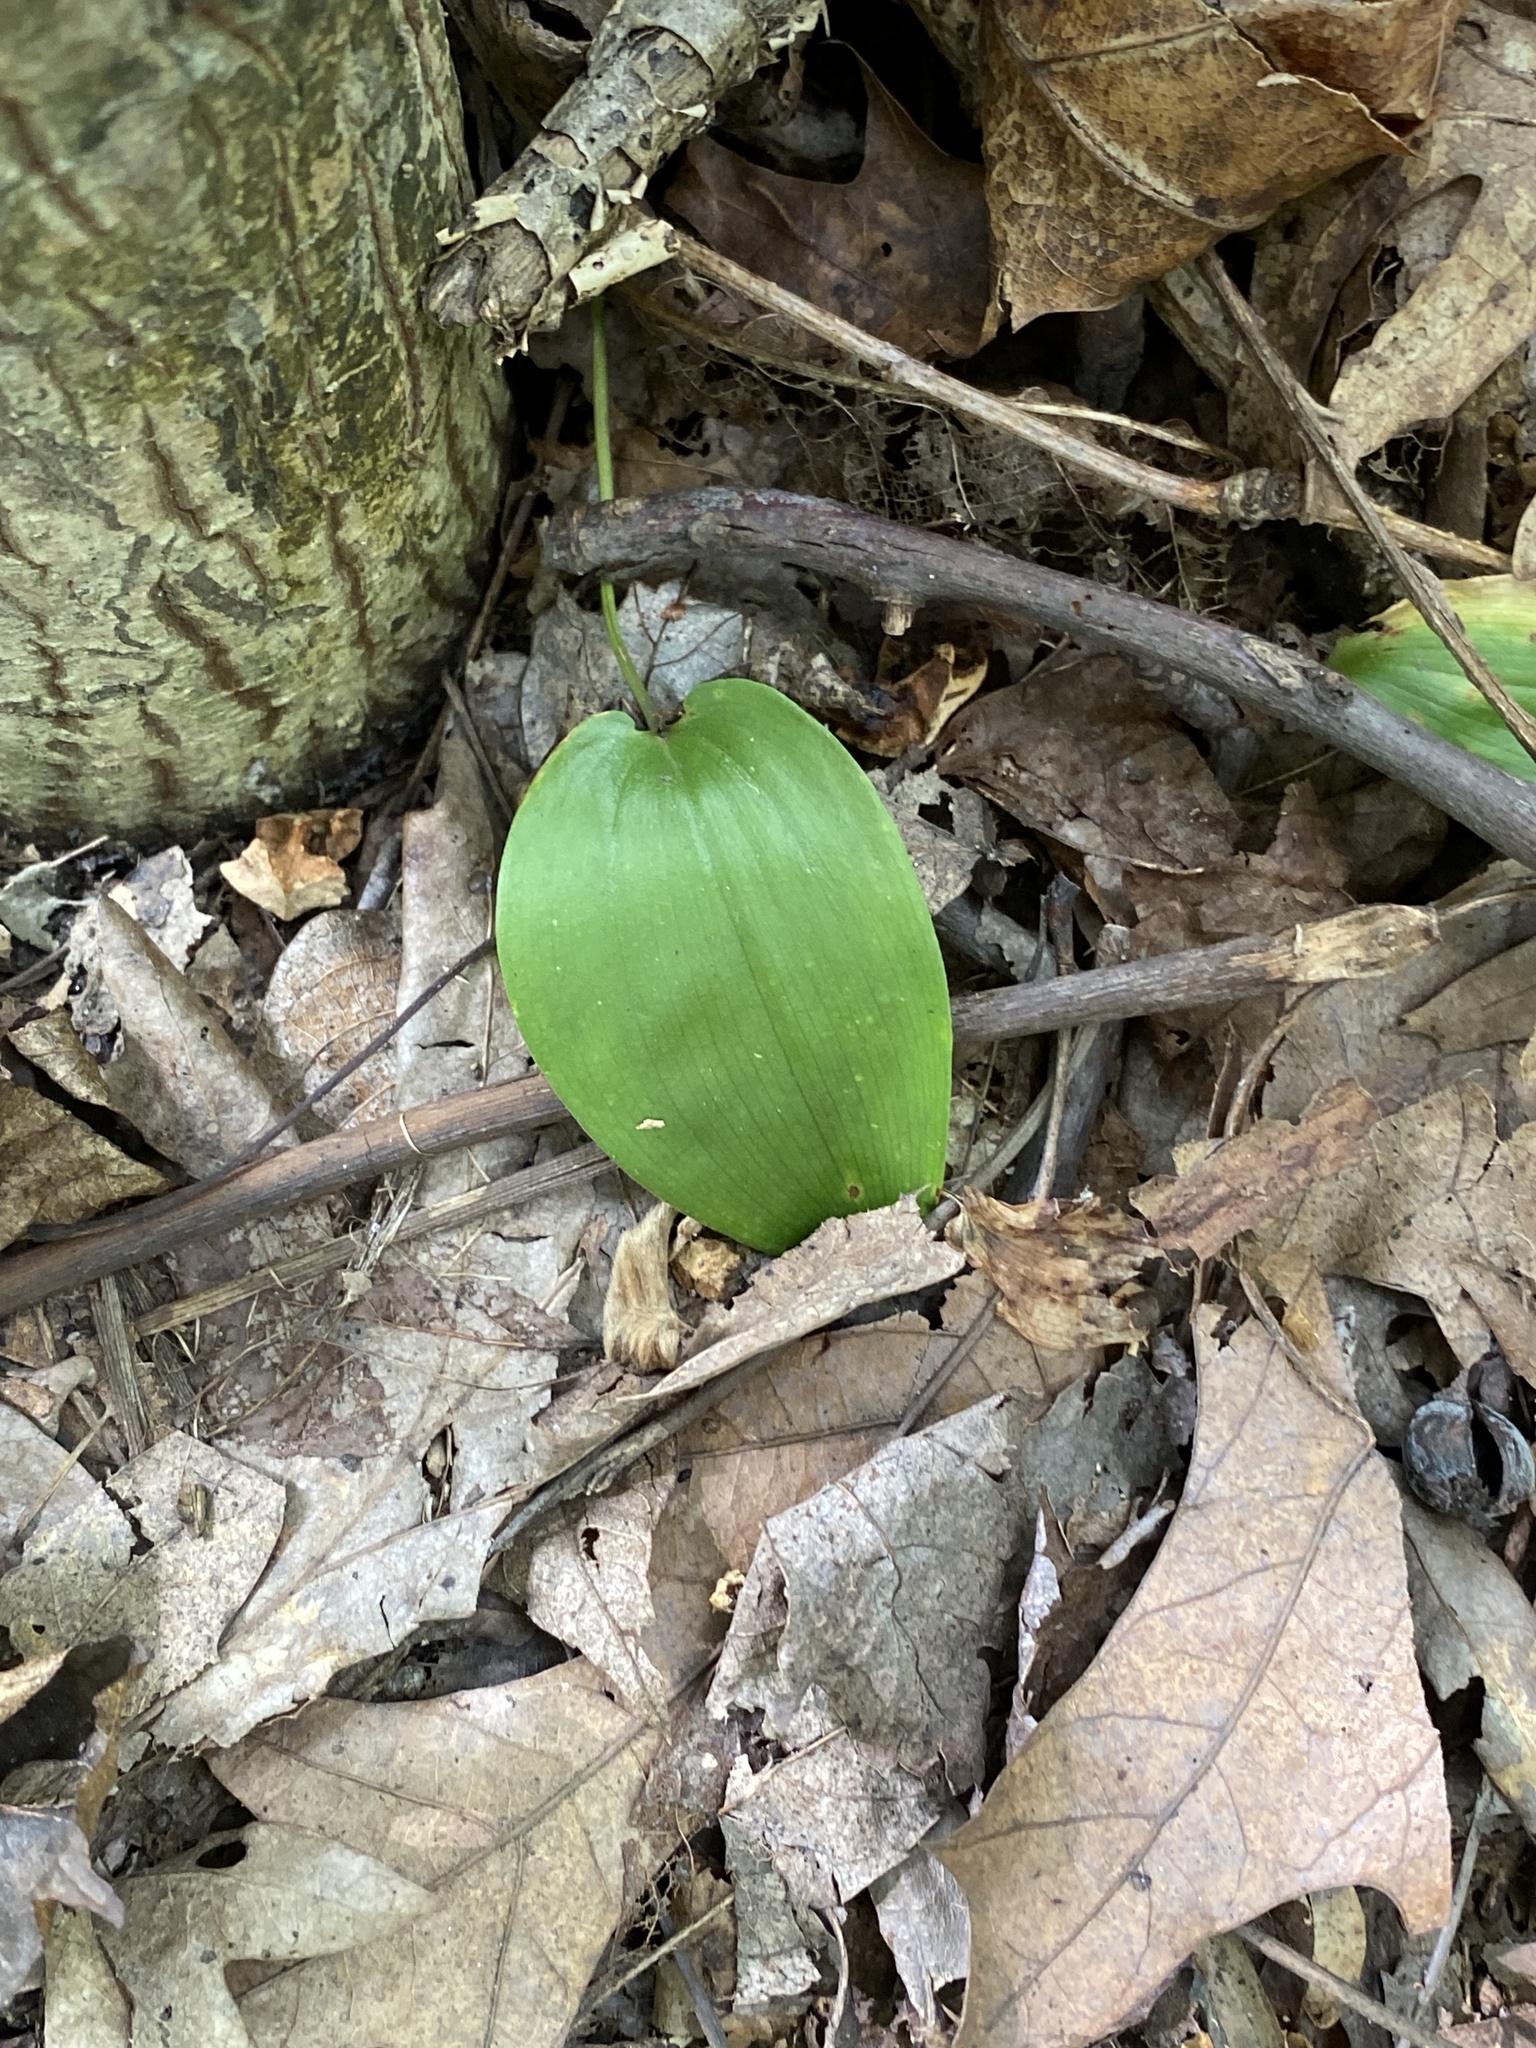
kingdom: Plantae
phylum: Tracheophyta
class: Liliopsida
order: Asparagales
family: Asparagaceae
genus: Maianthemum
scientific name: Maianthemum canadense
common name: False lily-of-the-valley
